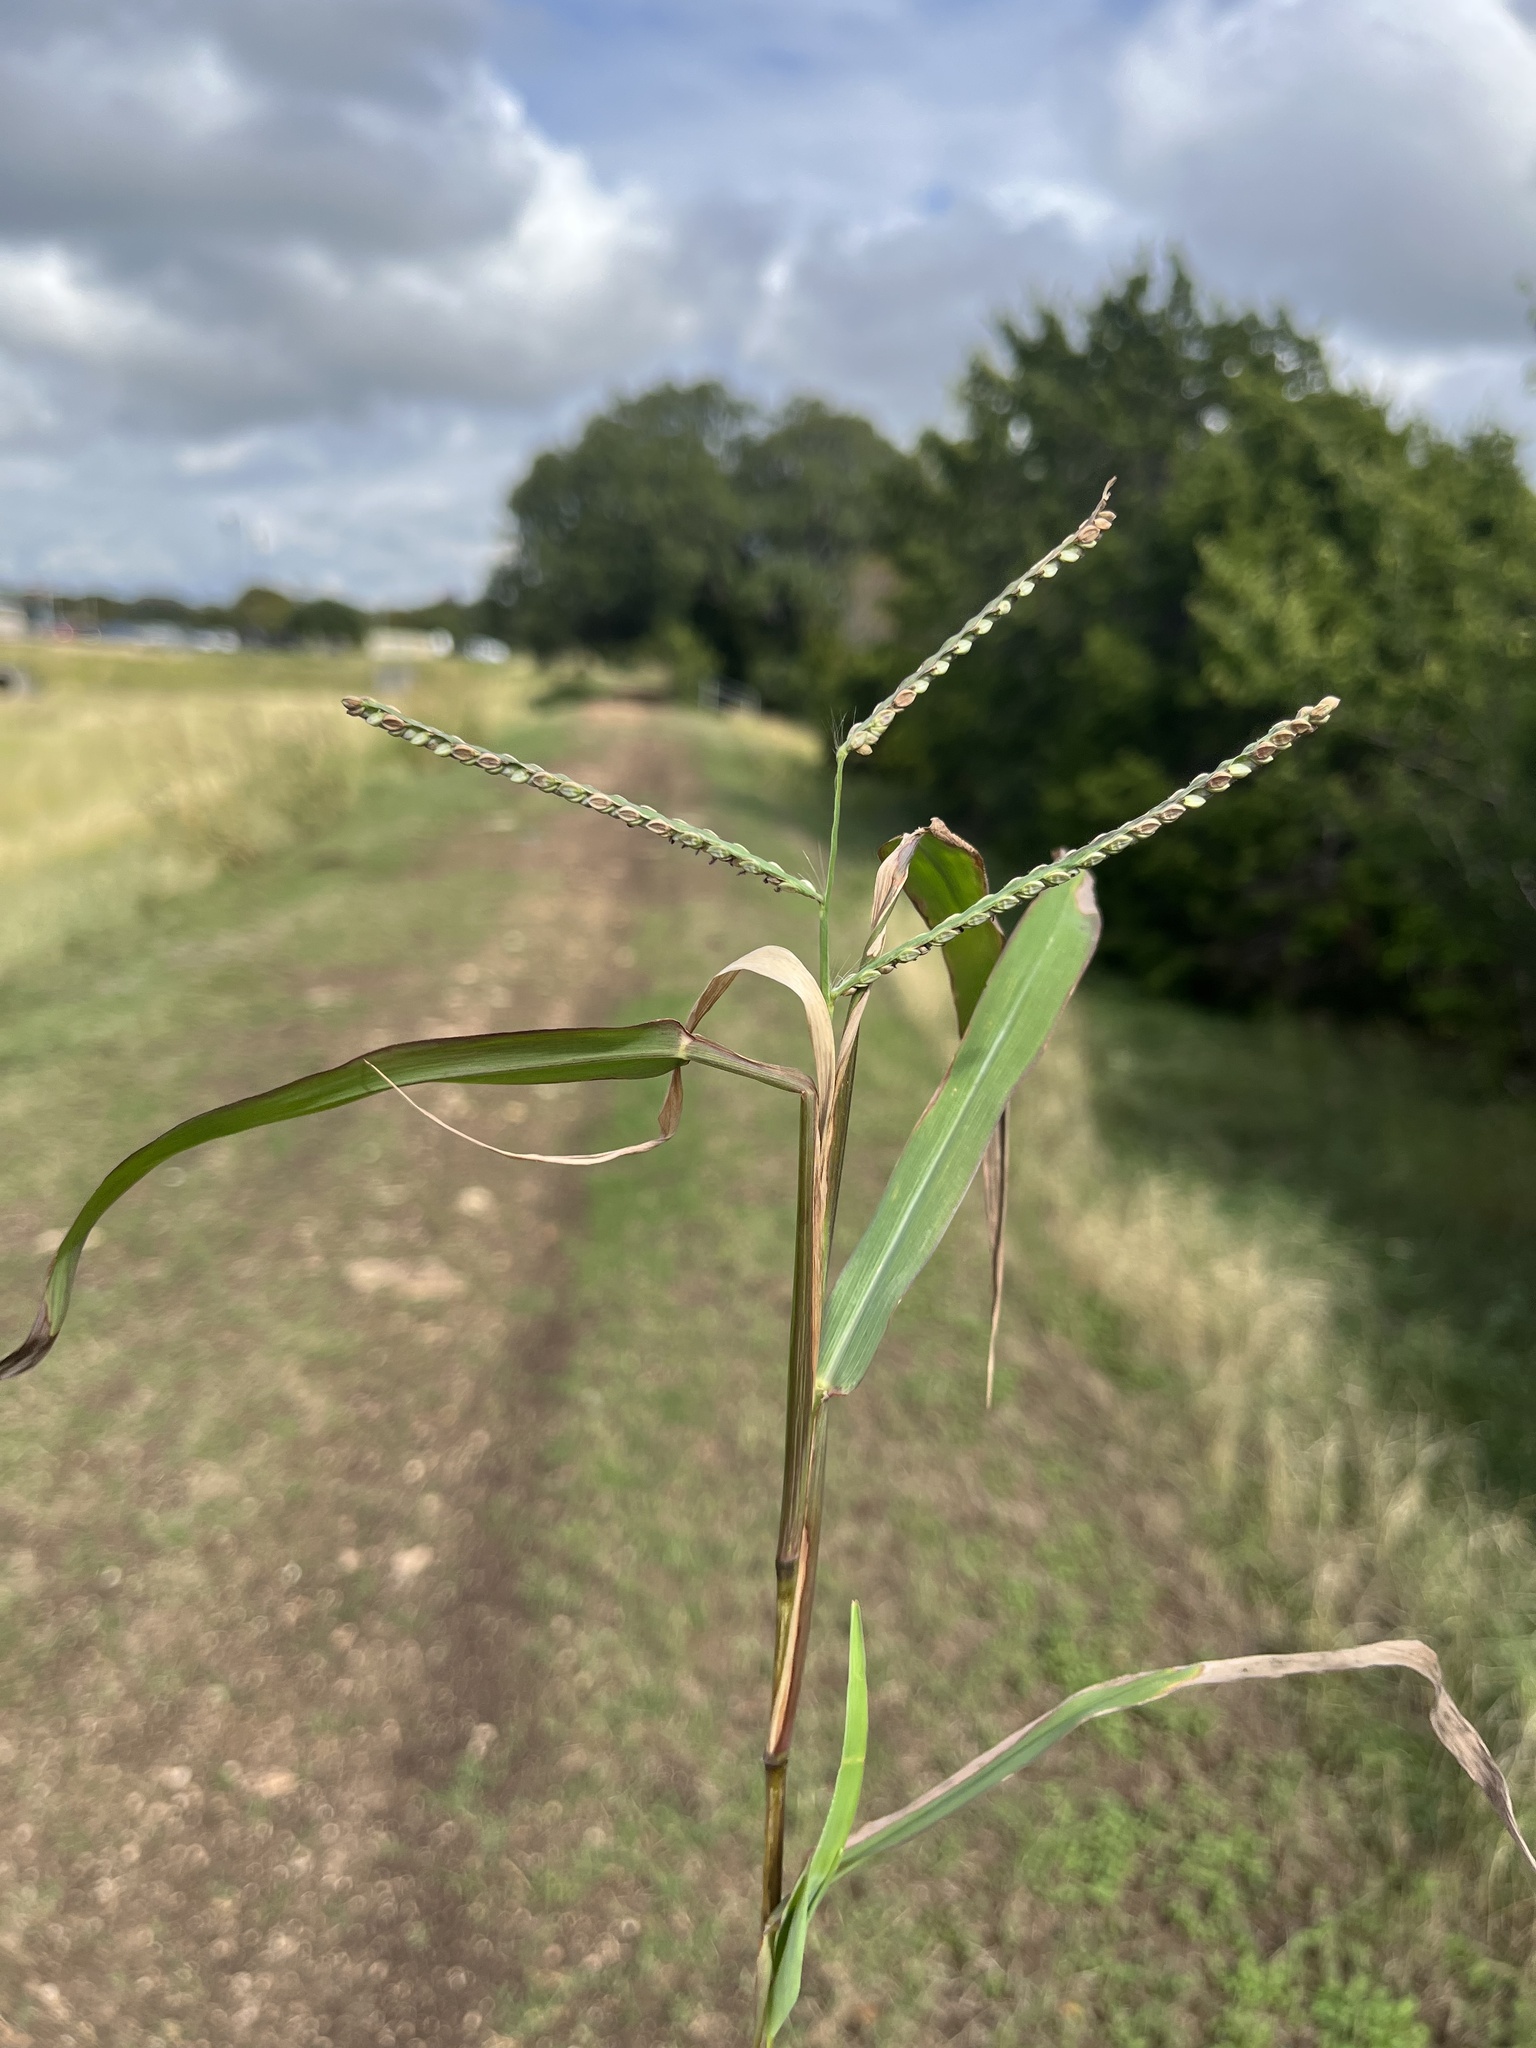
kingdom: Plantae
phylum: Tracheophyta
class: Liliopsida
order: Poales
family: Poaceae
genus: Paspalum
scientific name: Paspalum pubiflorum
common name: Hairy-seed paspalum
